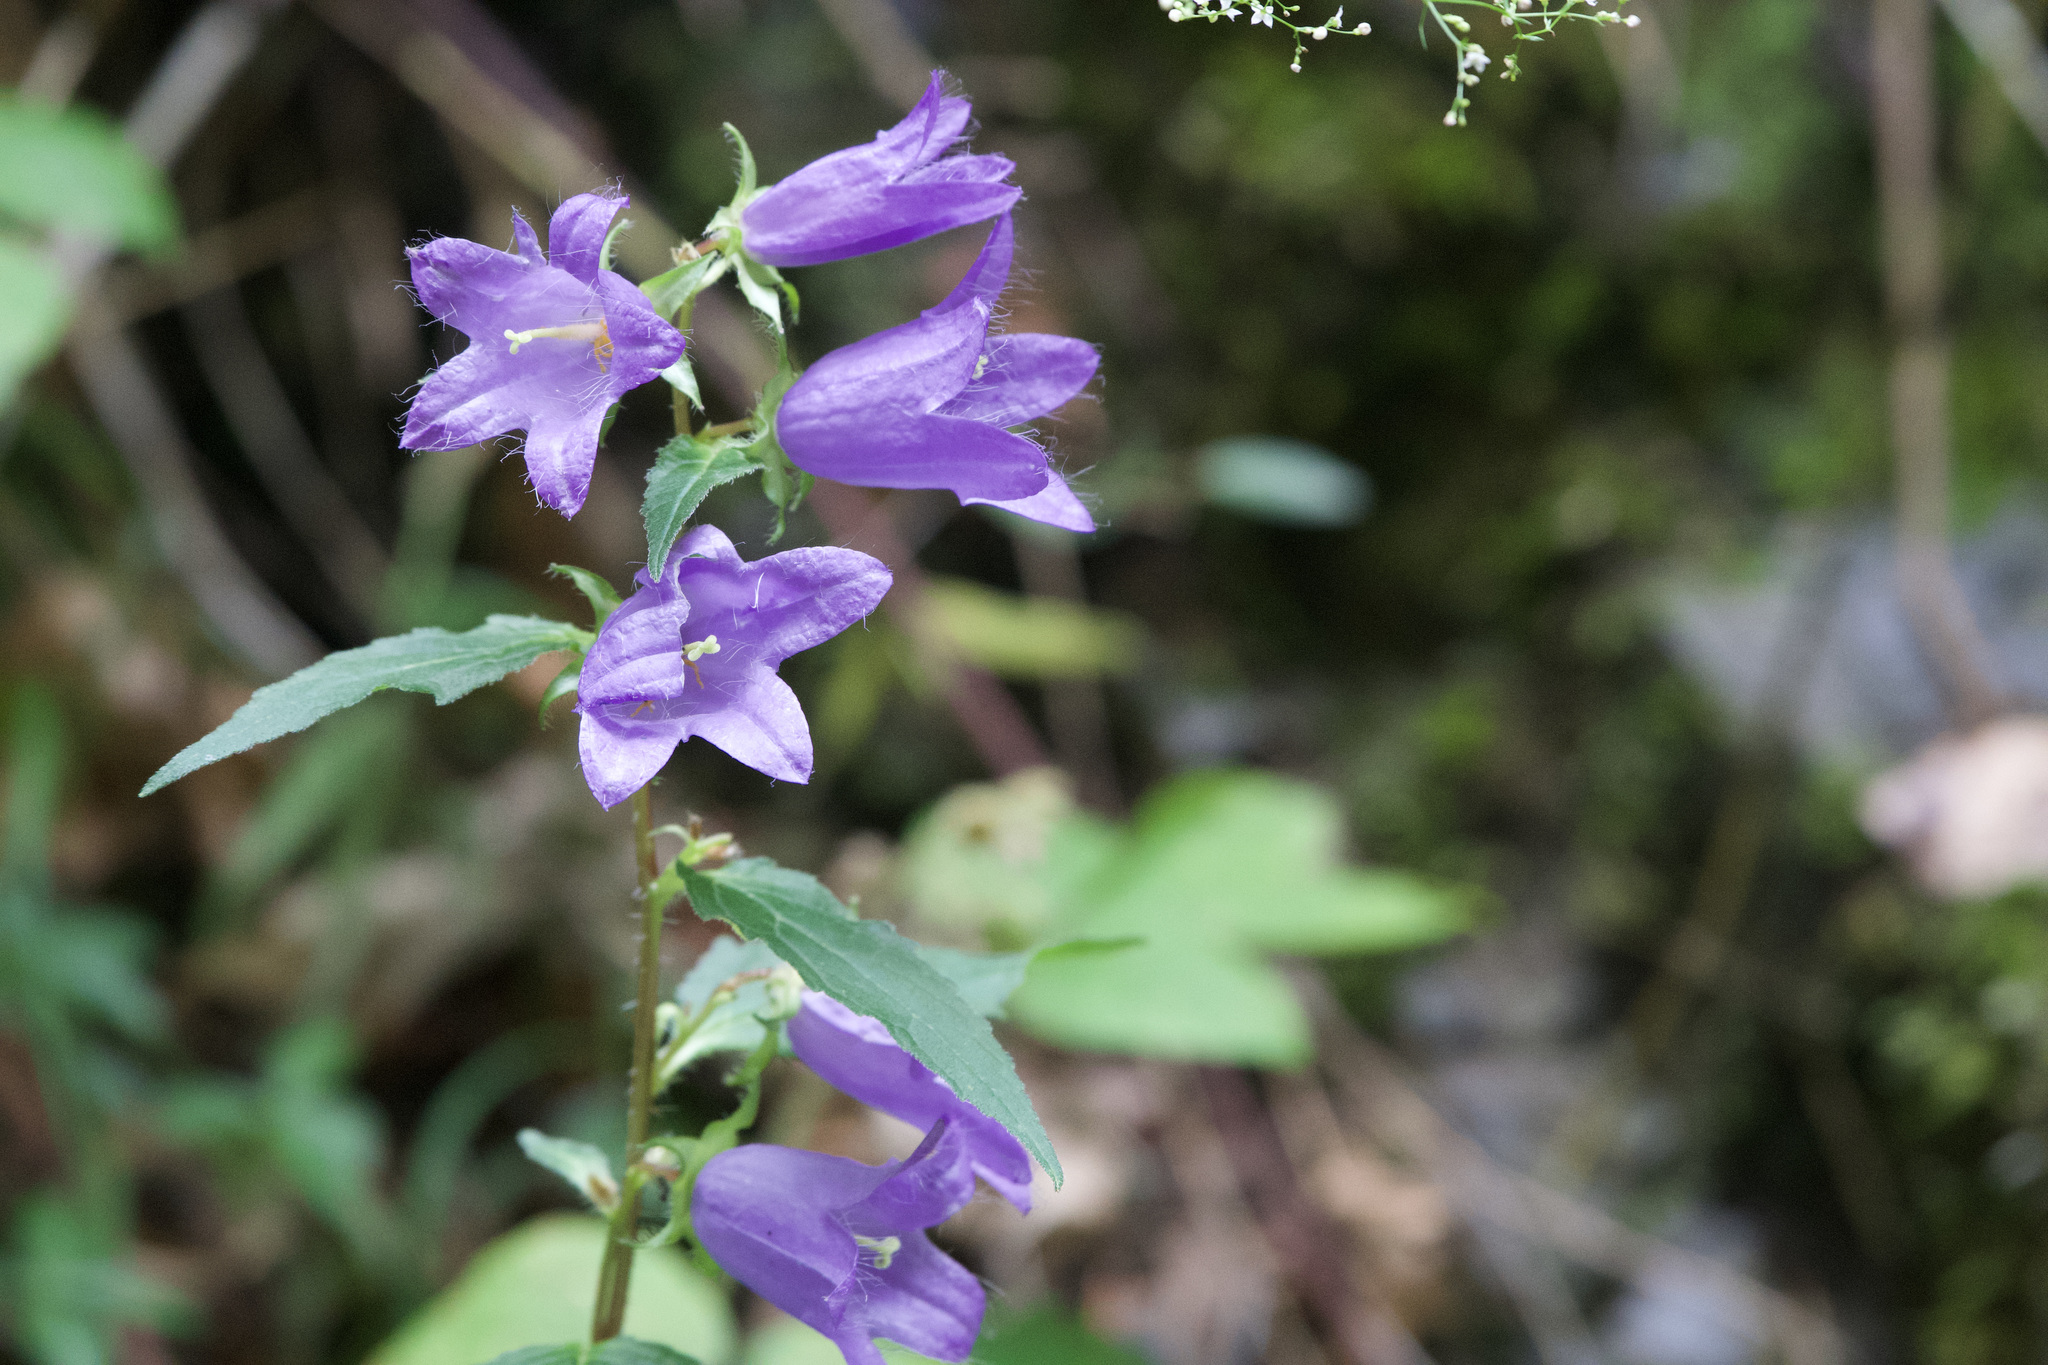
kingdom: Plantae
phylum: Tracheophyta
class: Magnoliopsida
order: Asterales
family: Campanulaceae
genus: Campanula
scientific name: Campanula trachelium
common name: Nettle-leaved bellflower
